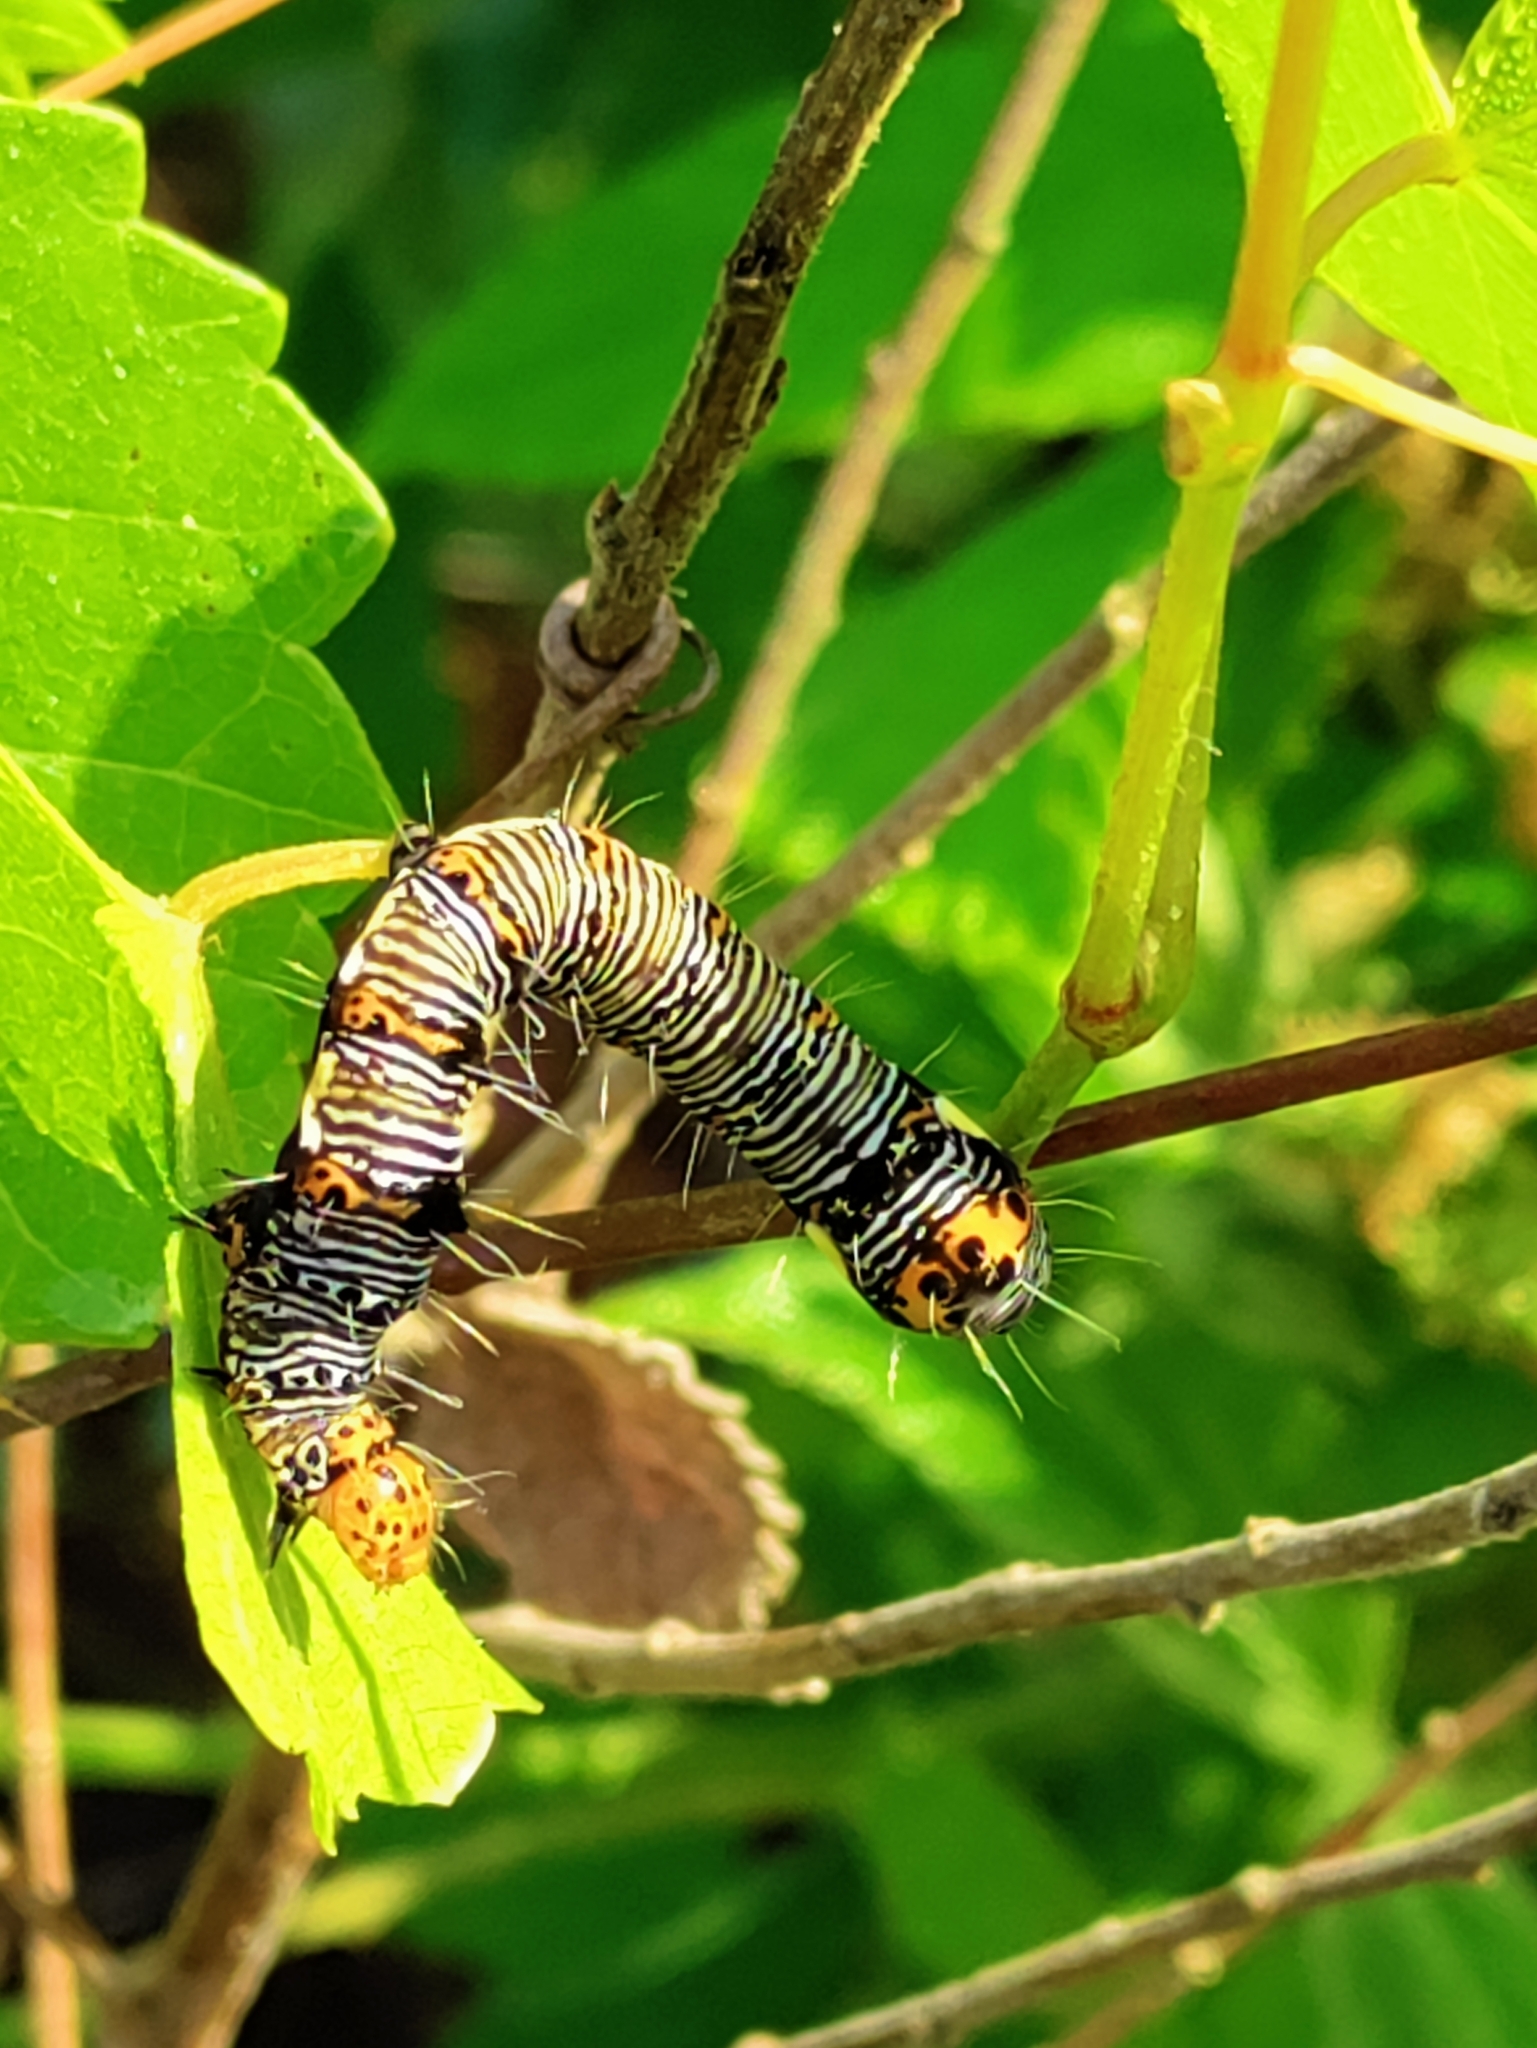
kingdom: Animalia
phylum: Arthropoda
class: Insecta
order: Lepidoptera
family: Noctuidae
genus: Alypia
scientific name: Alypia octomaculata
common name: Eight-spotted forester
